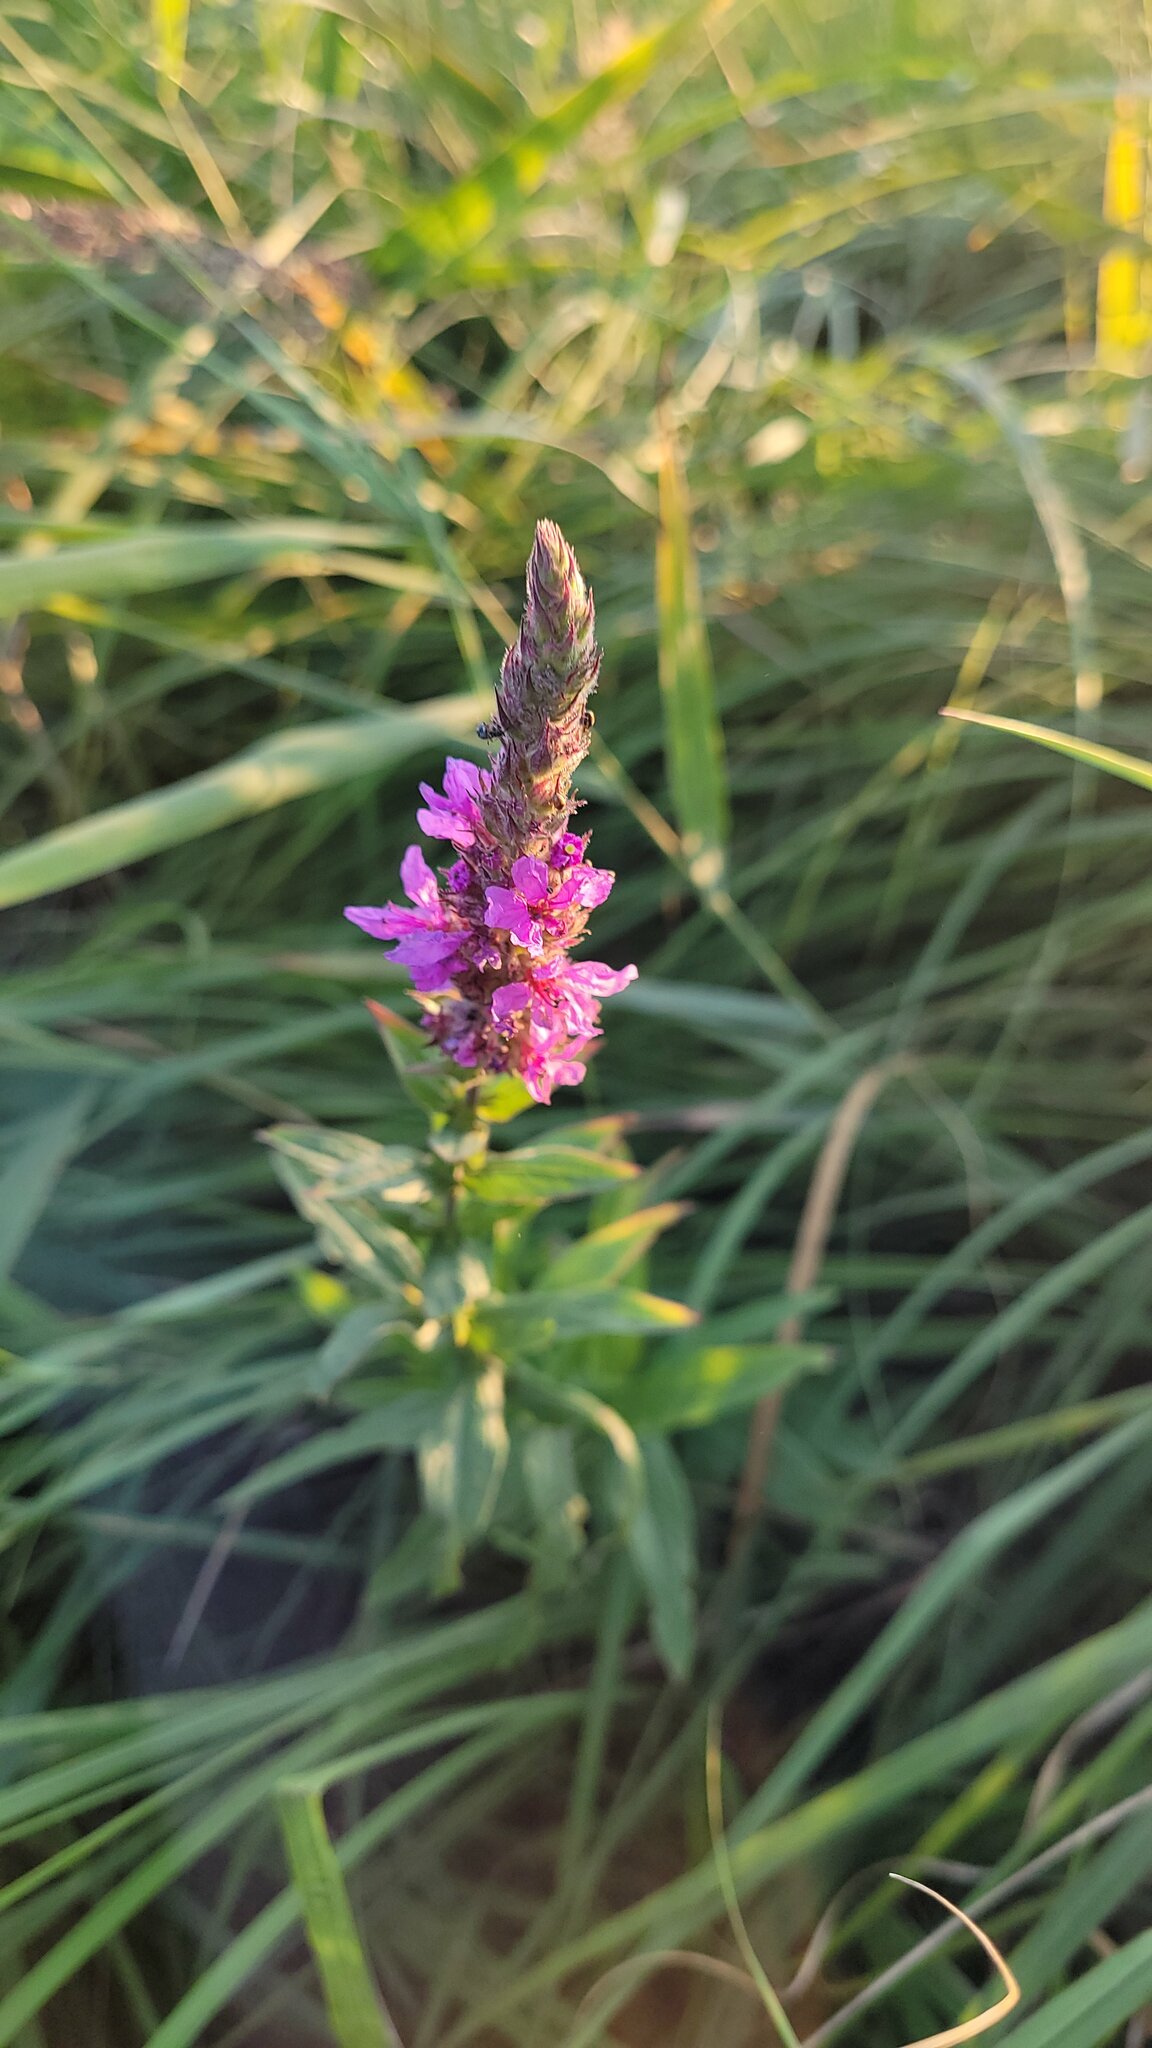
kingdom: Plantae
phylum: Tracheophyta
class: Magnoliopsida
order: Myrtales
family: Lythraceae
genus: Lythrum
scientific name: Lythrum salicaria
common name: Purple loosestrife
